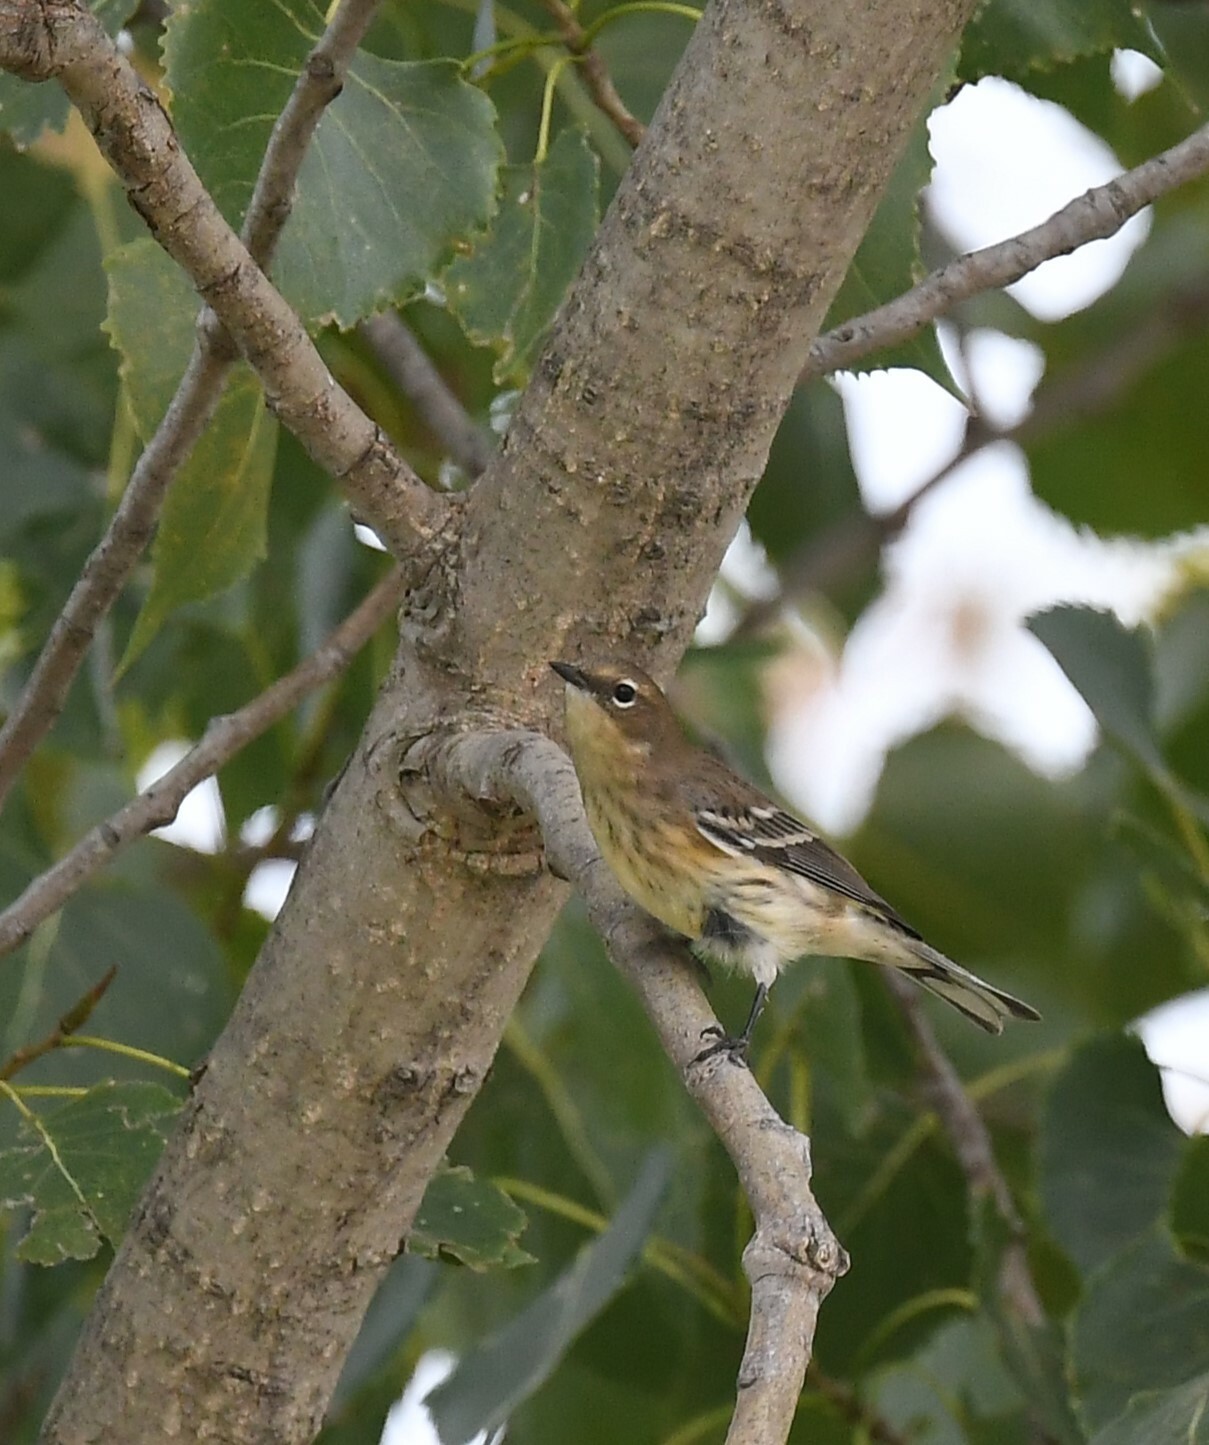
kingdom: Animalia
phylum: Chordata
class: Aves
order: Passeriformes
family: Parulidae
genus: Setophaga
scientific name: Setophaga coronata
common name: Myrtle warbler
